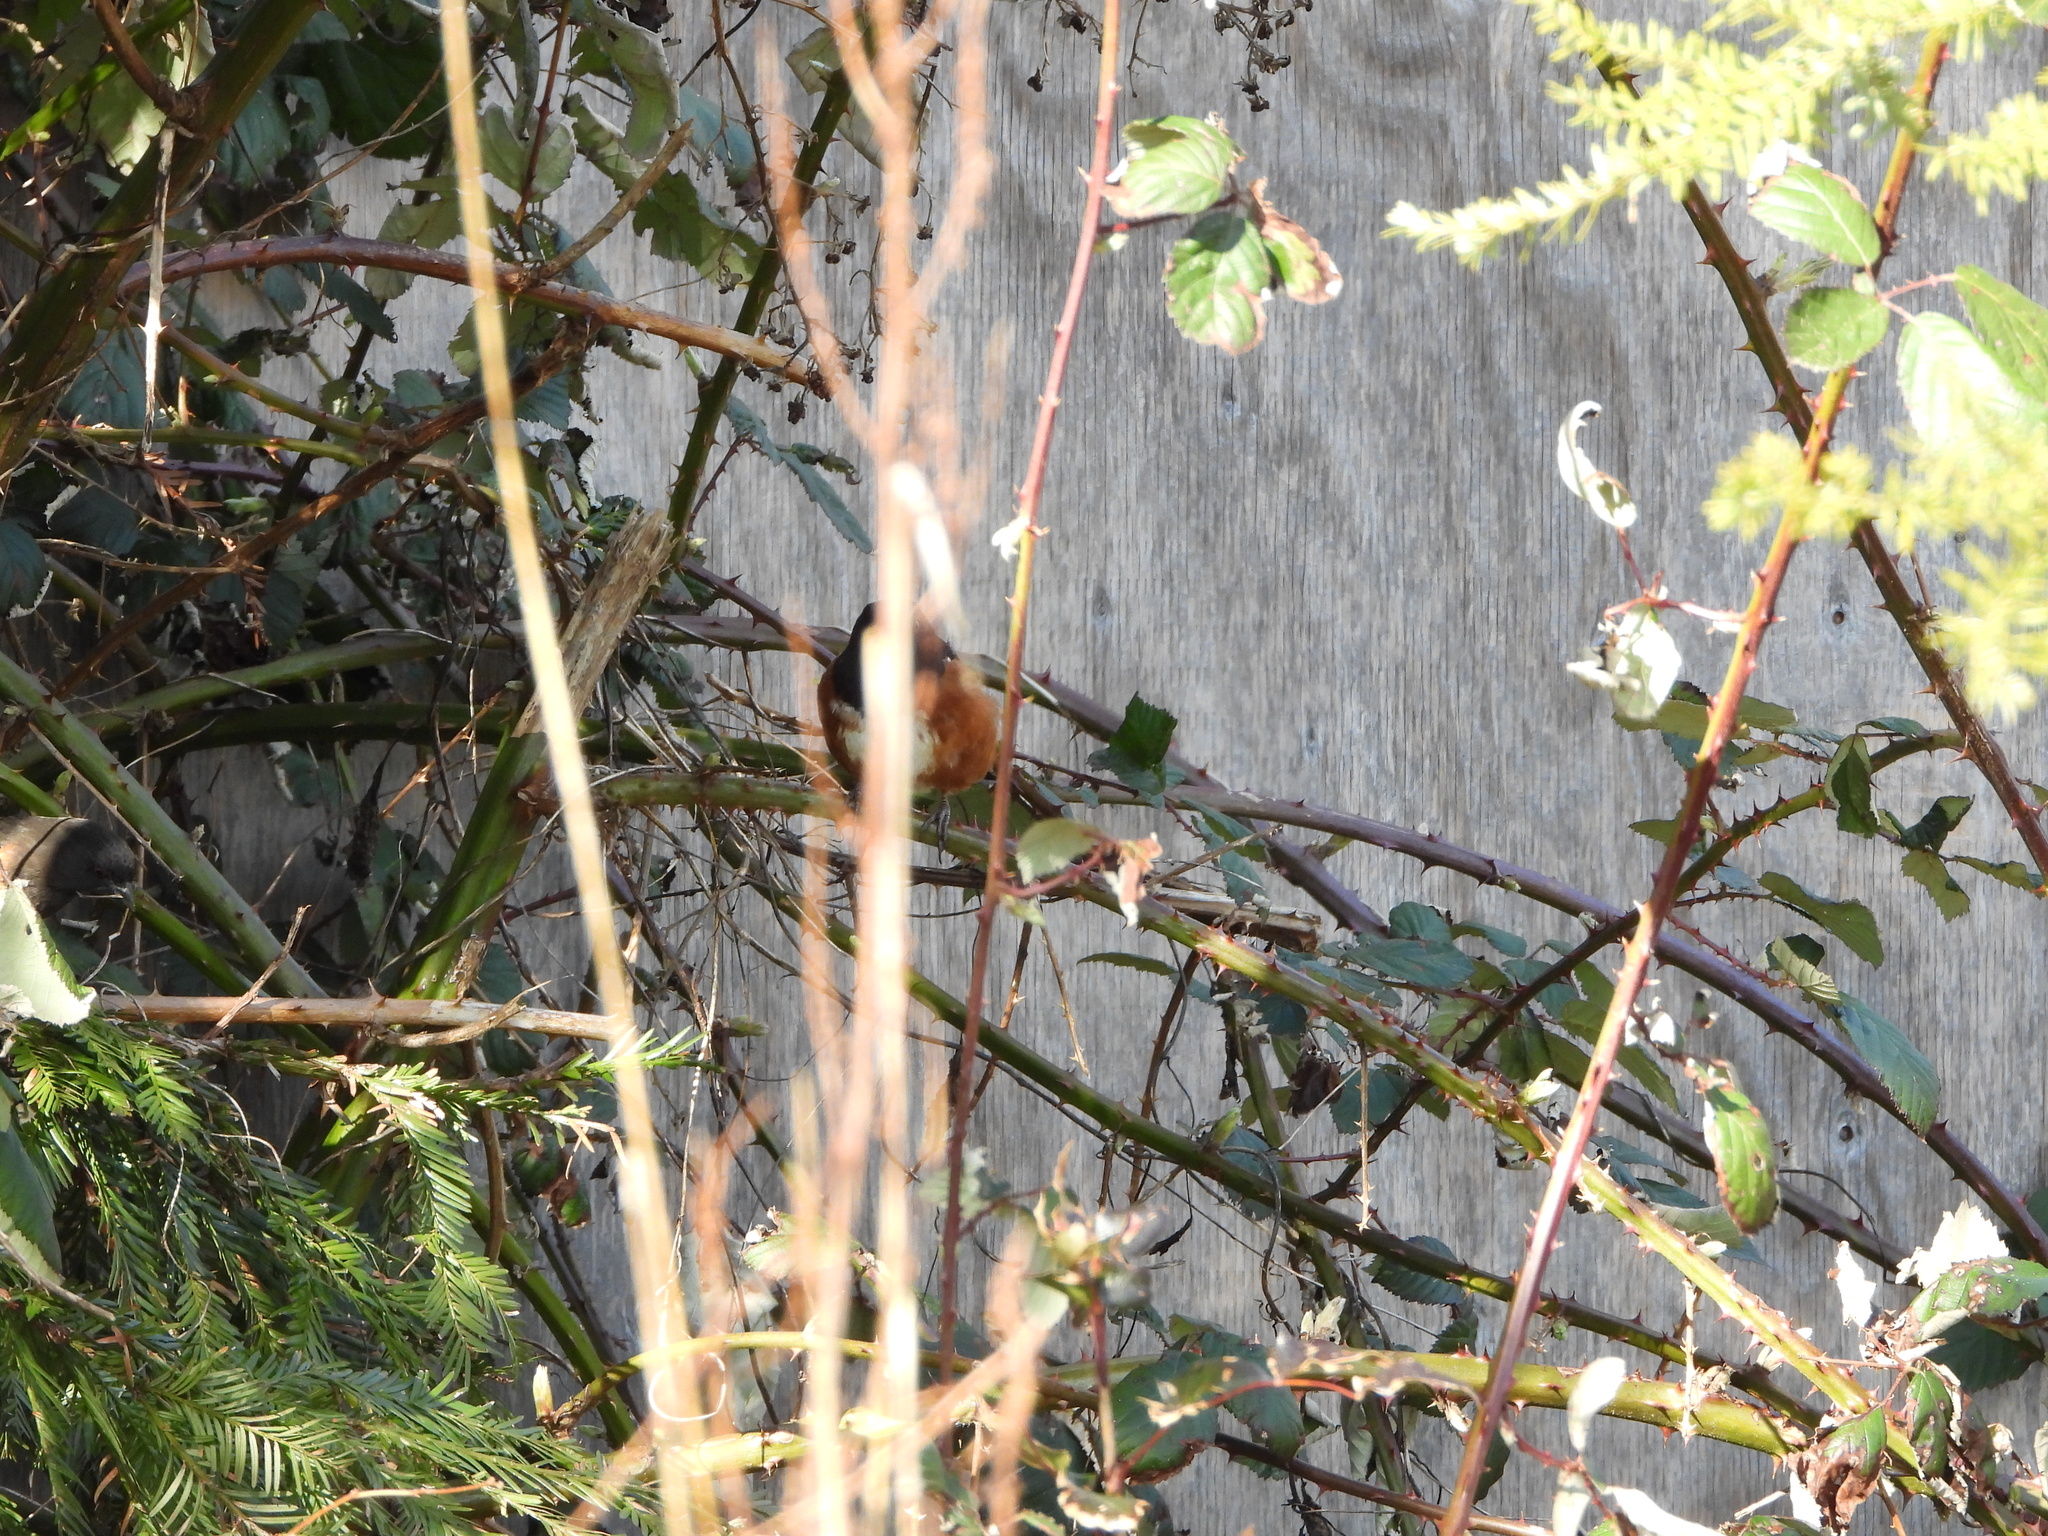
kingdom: Animalia
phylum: Chordata
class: Aves
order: Passeriformes
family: Passerellidae
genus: Pipilo
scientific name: Pipilo maculatus
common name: Spotted towhee
